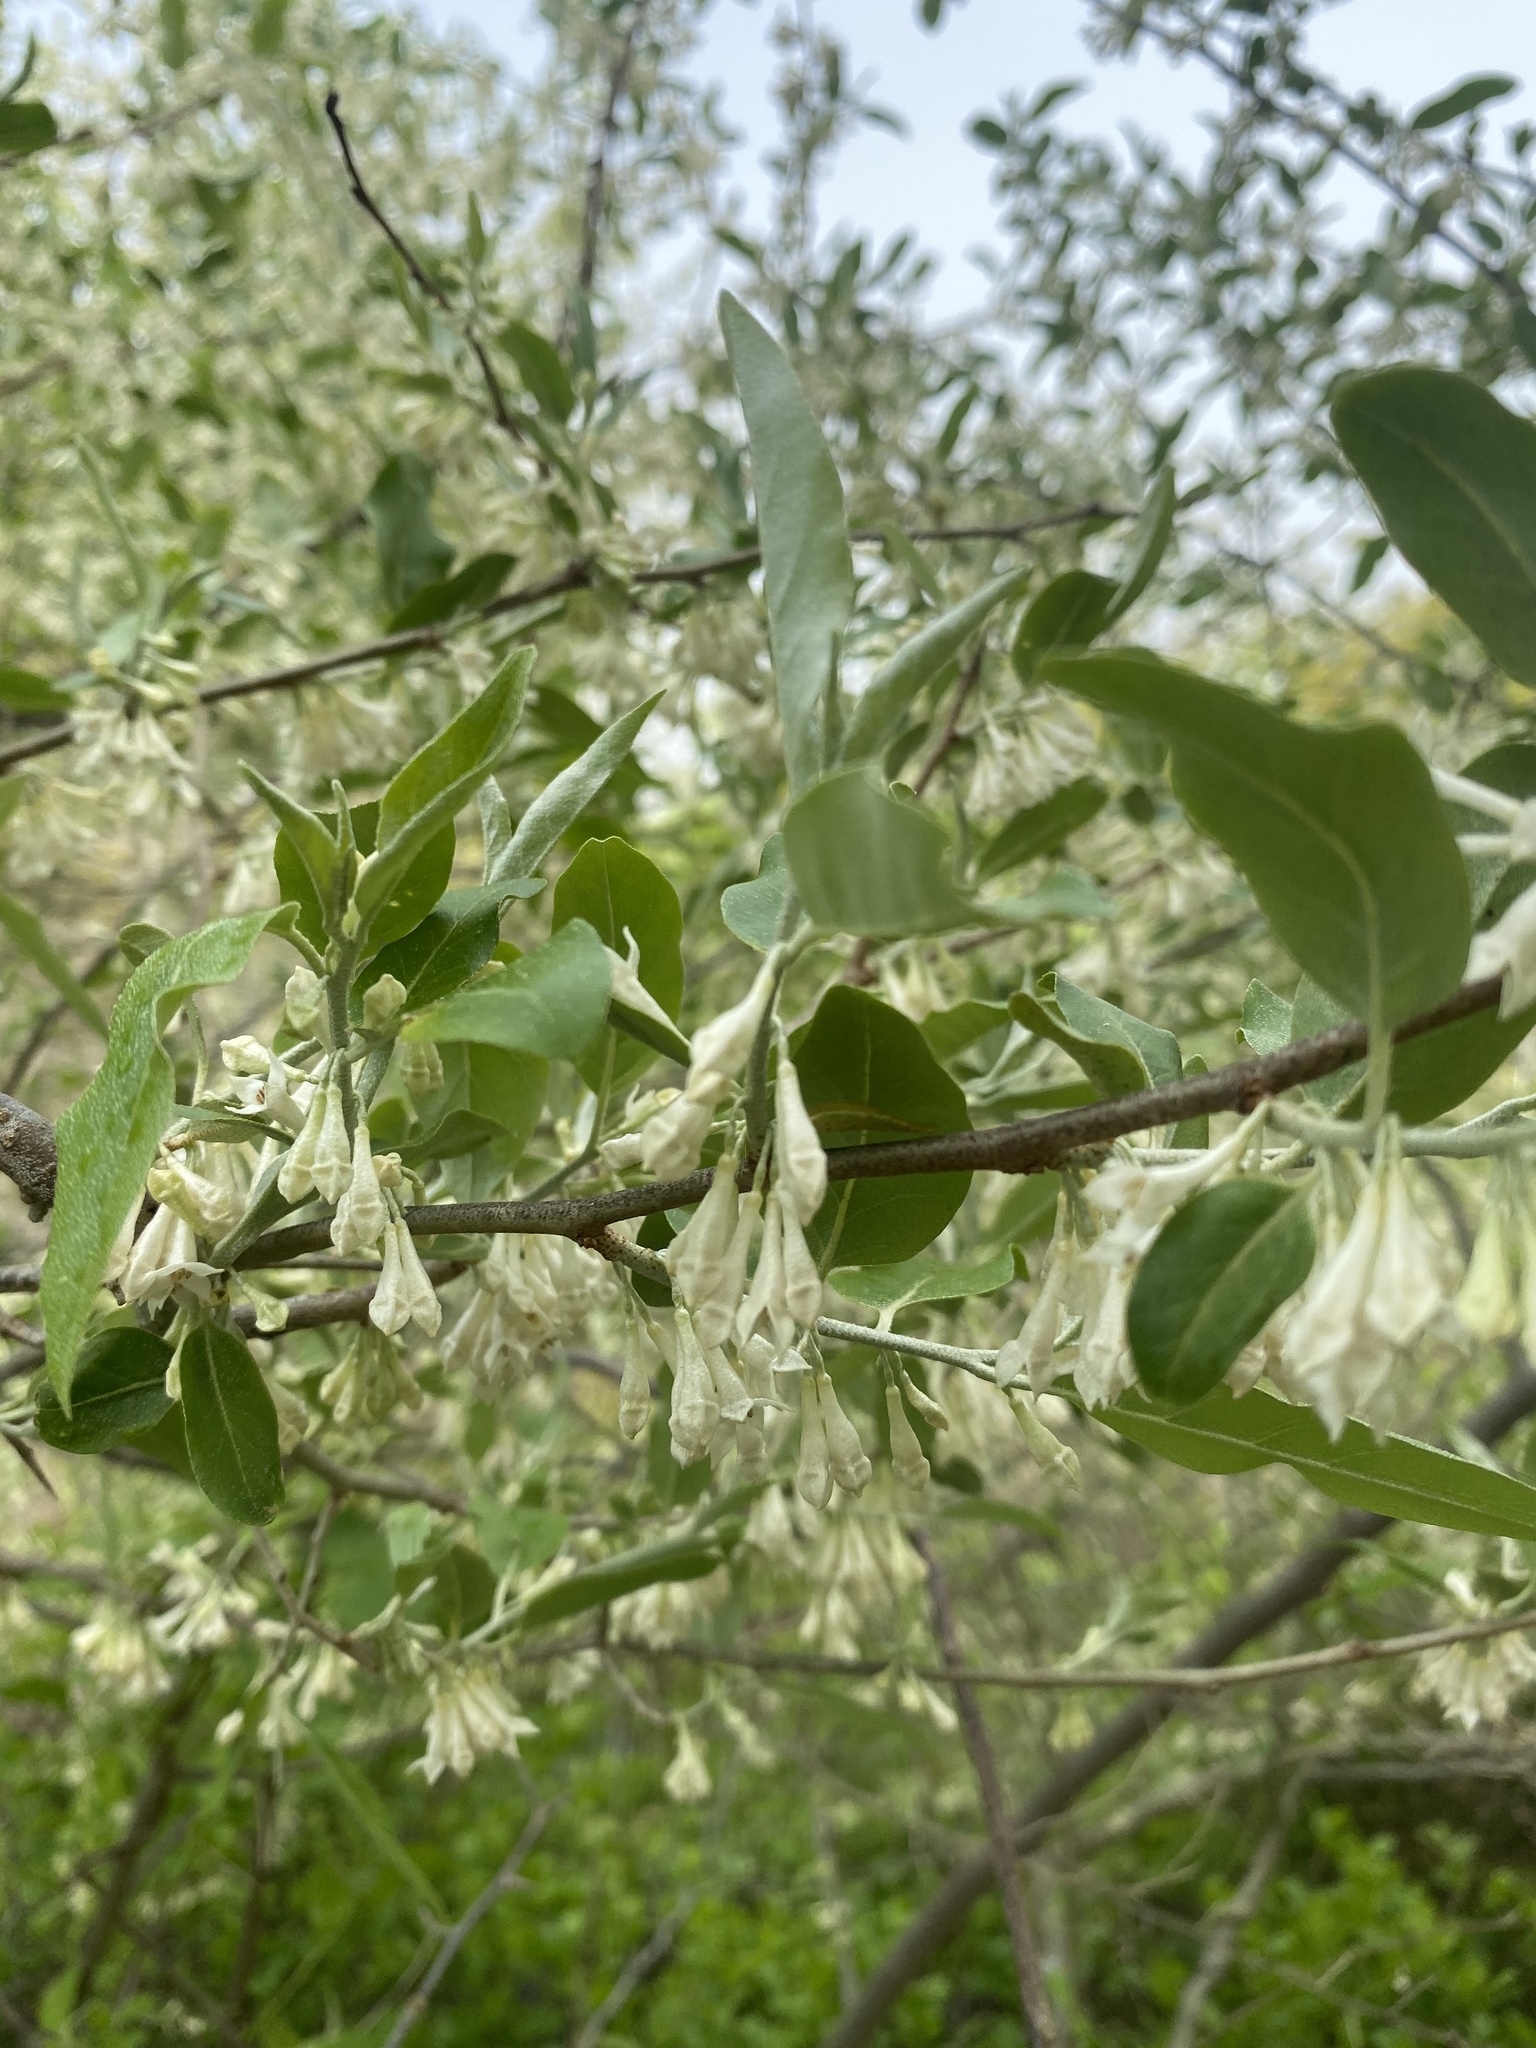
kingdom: Plantae
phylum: Tracheophyta
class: Magnoliopsida
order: Rosales
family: Elaeagnaceae
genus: Elaeagnus
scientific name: Elaeagnus umbellata
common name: Autumn olive
